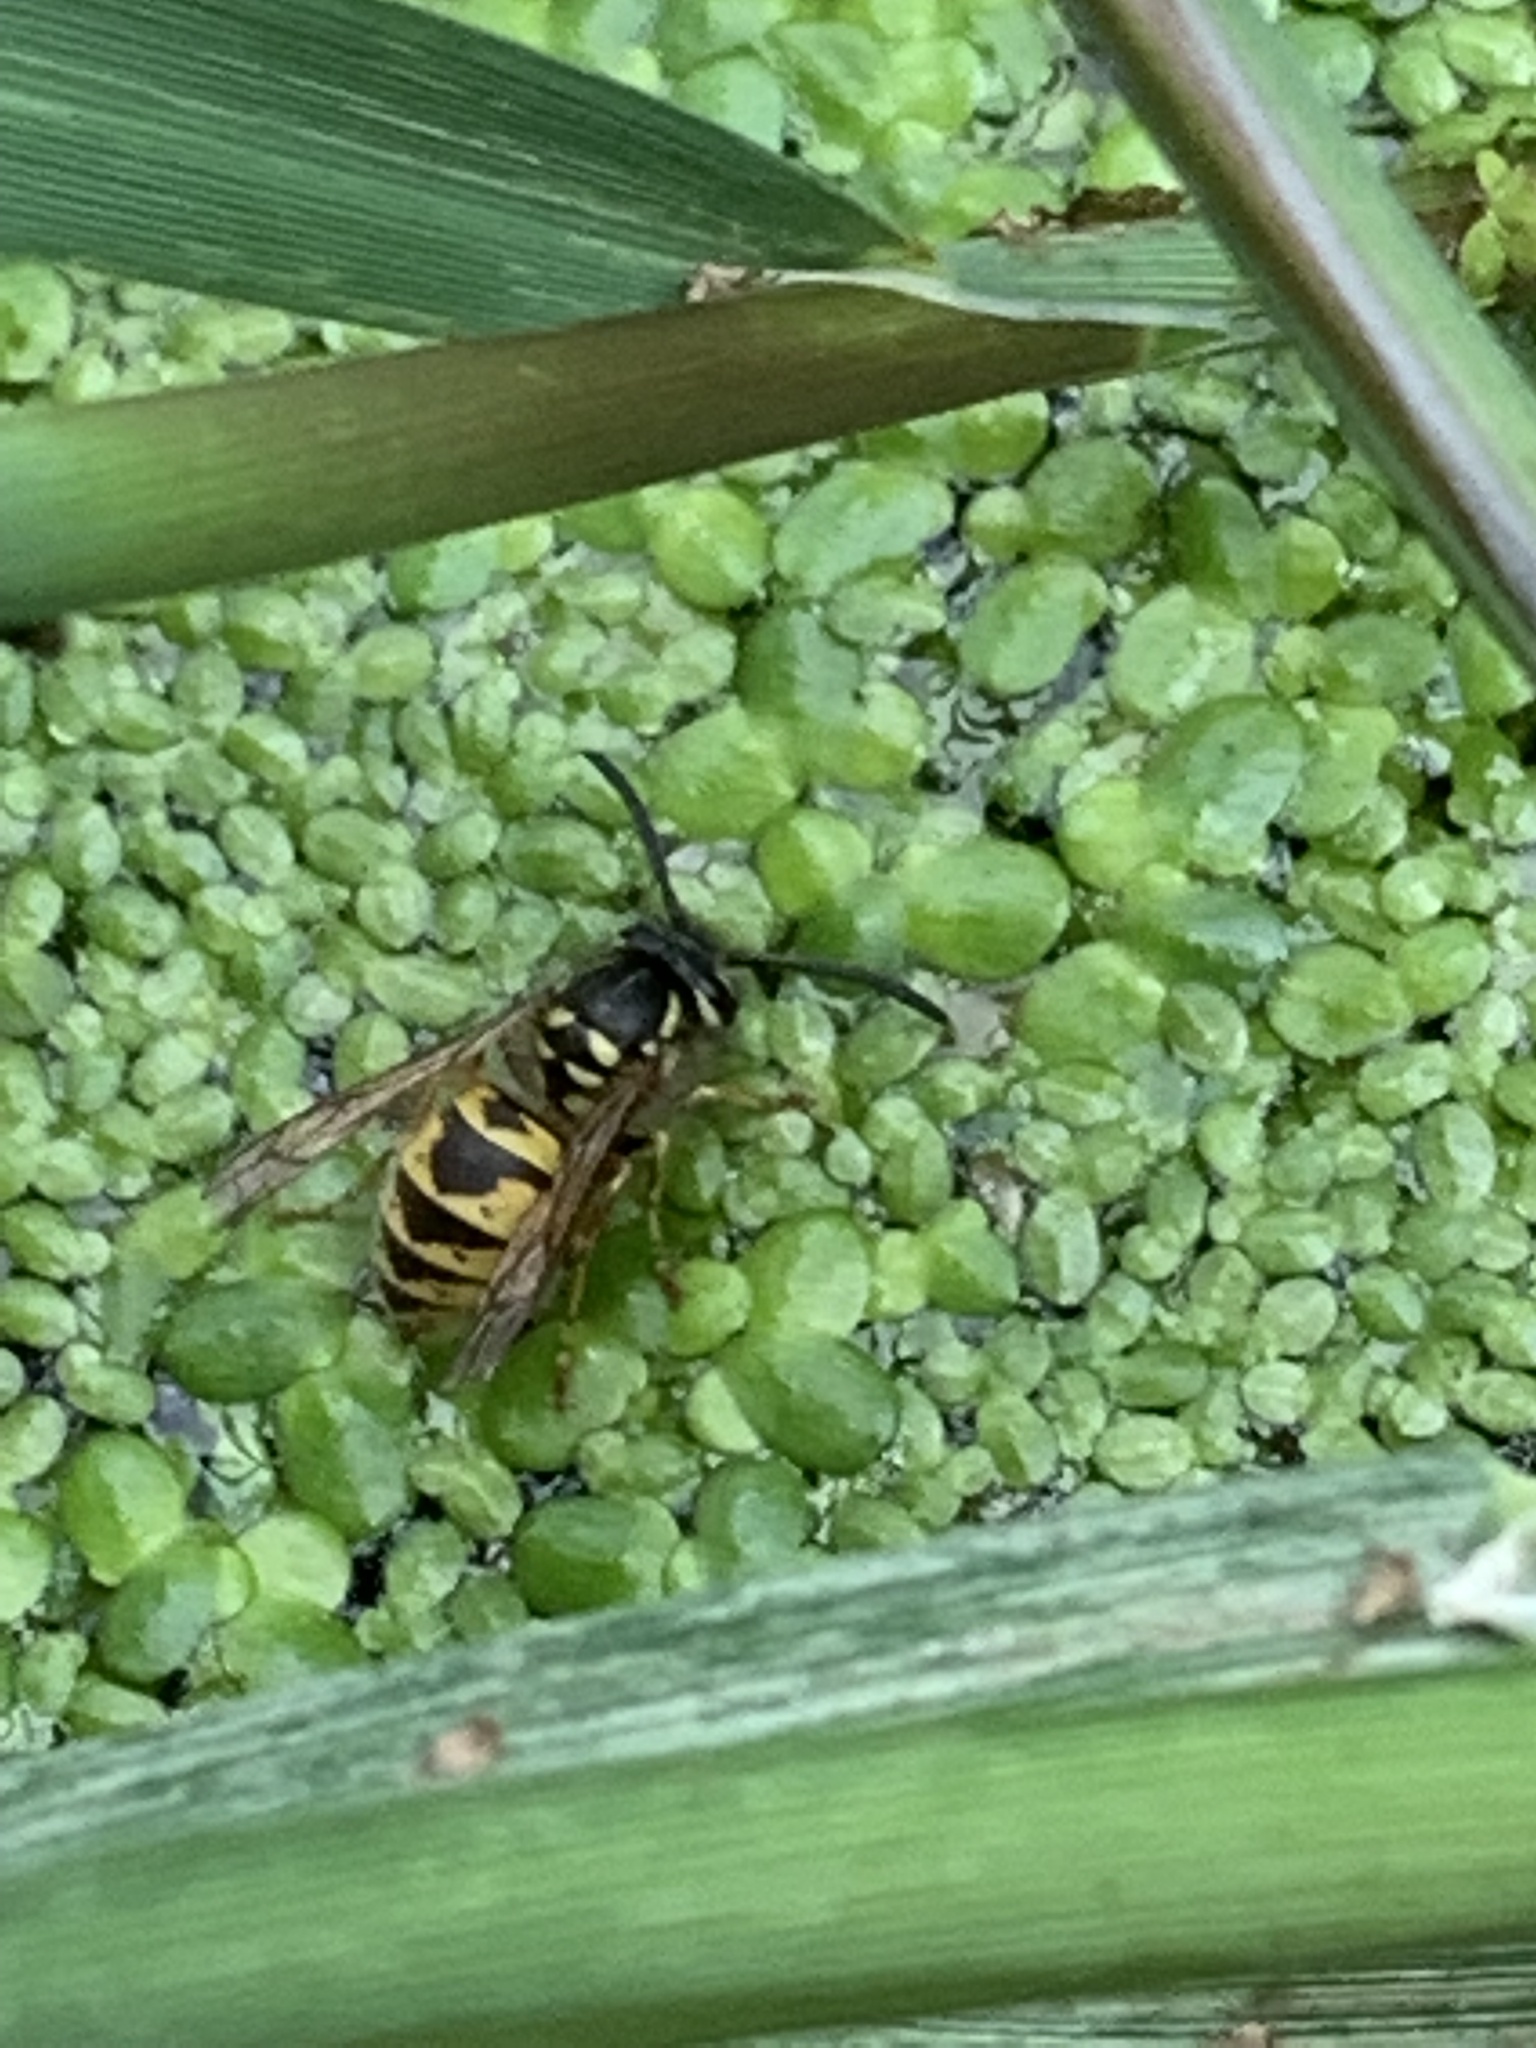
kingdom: Animalia
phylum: Arthropoda
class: Insecta
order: Hymenoptera
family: Vespidae
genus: Vespula
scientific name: Vespula vulgaris
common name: Common wasp
